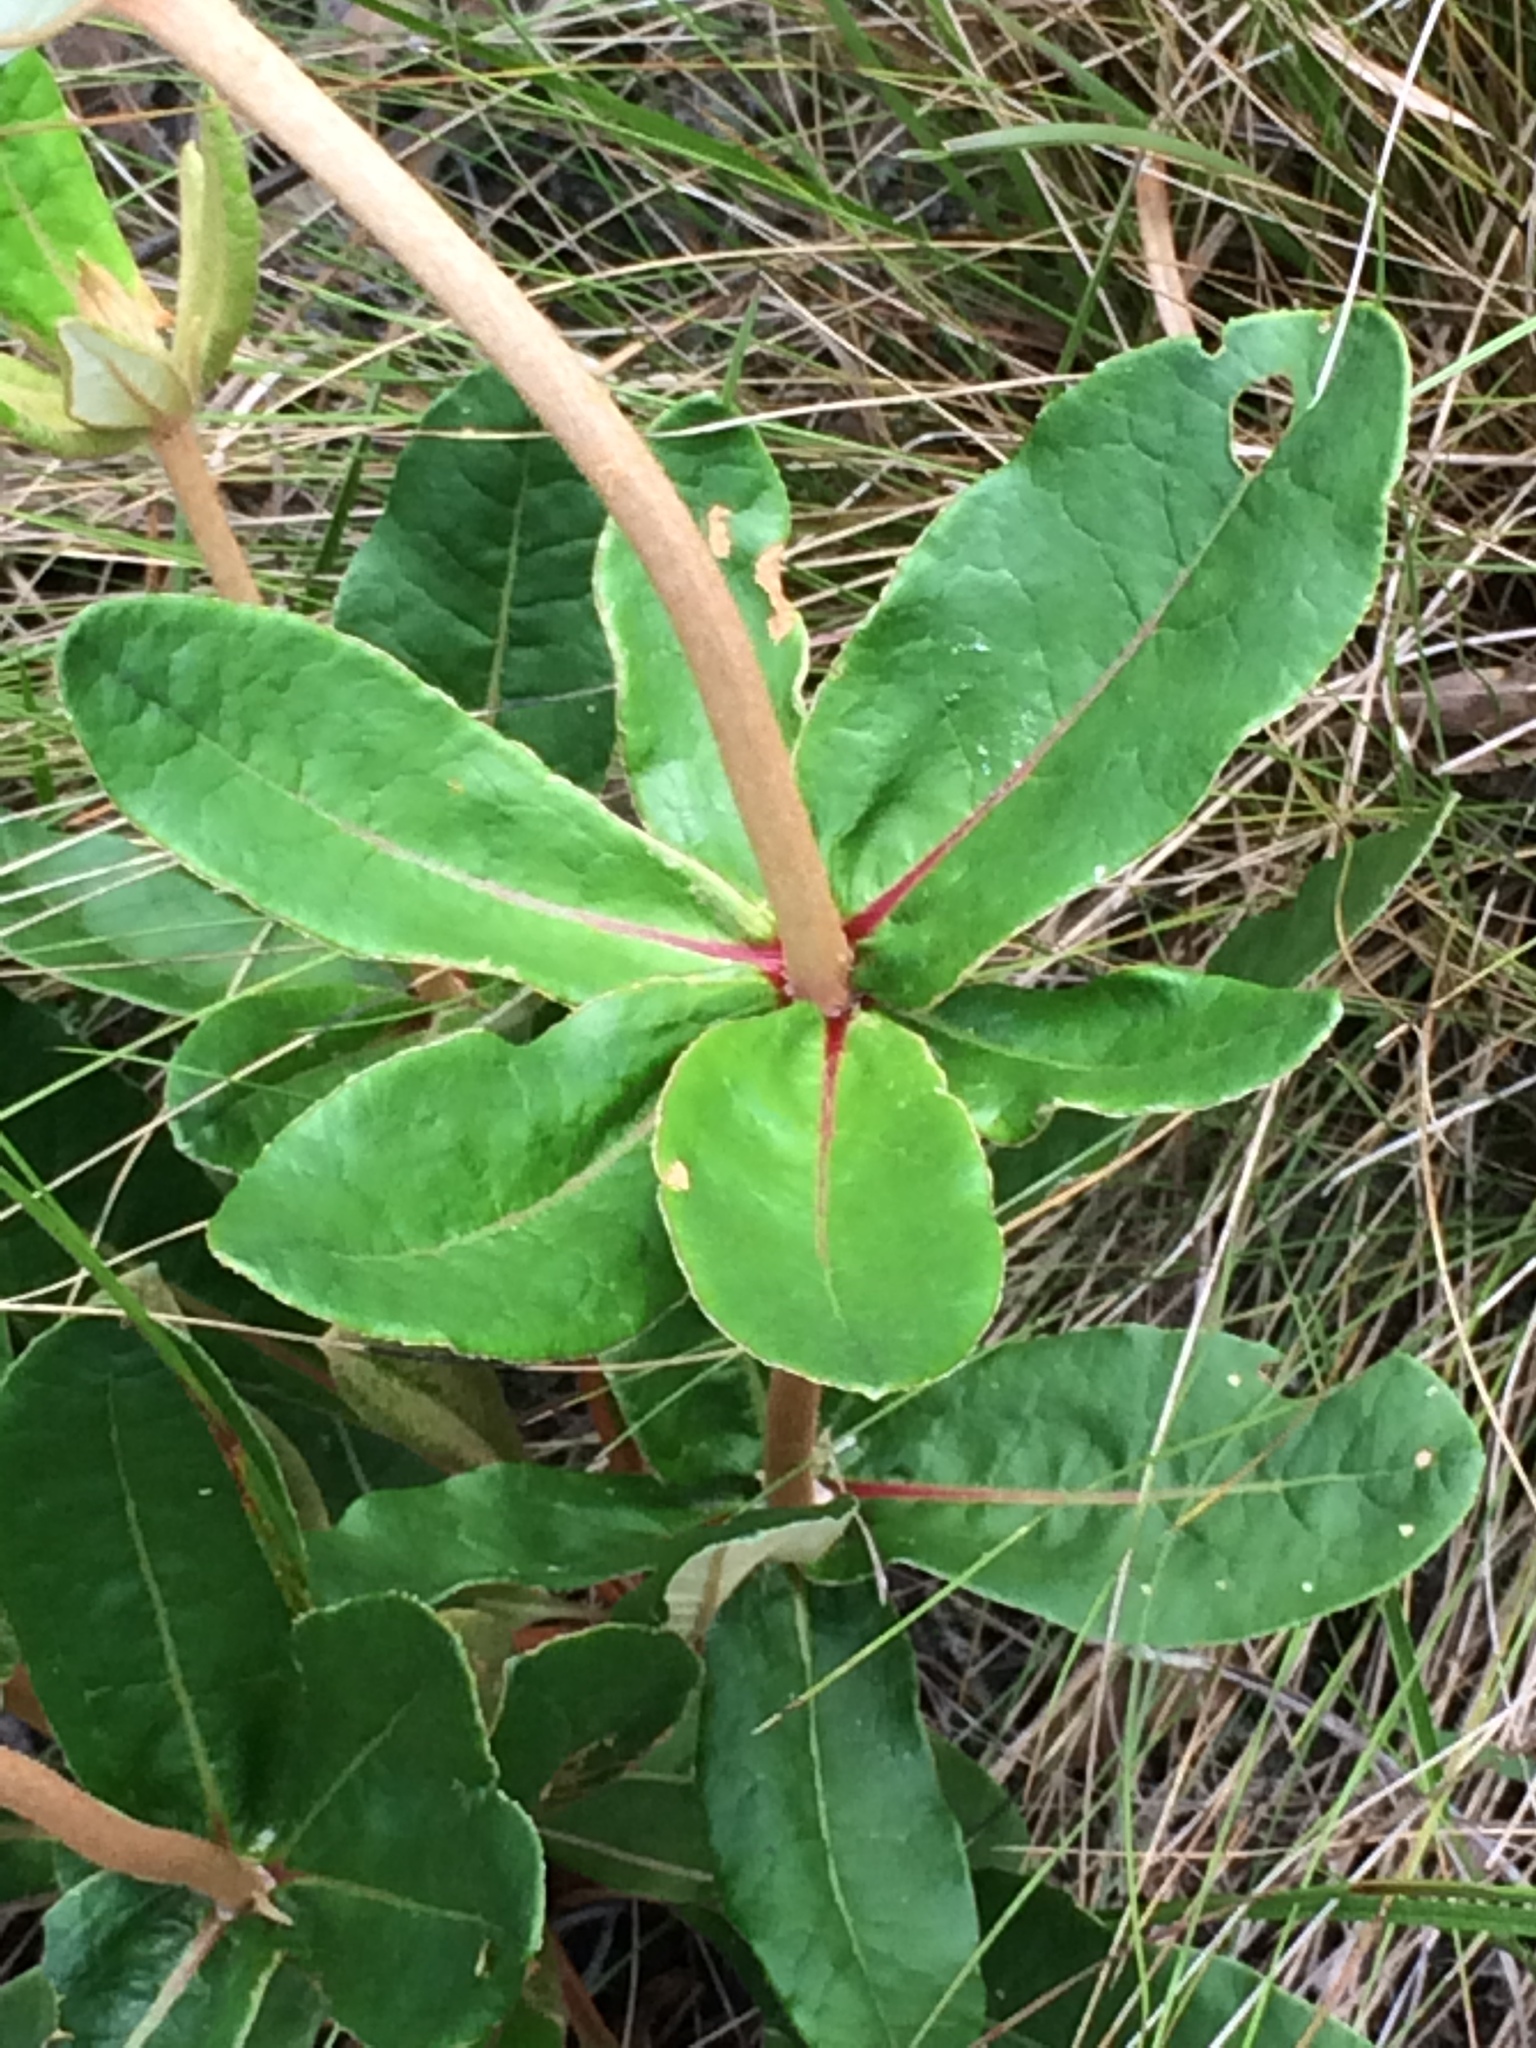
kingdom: Plantae
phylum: Tracheophyta
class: Magnoliopsida
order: Caryophyllales
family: Polygonaceae
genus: Eriogonum
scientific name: Eriogonum tomentosum
